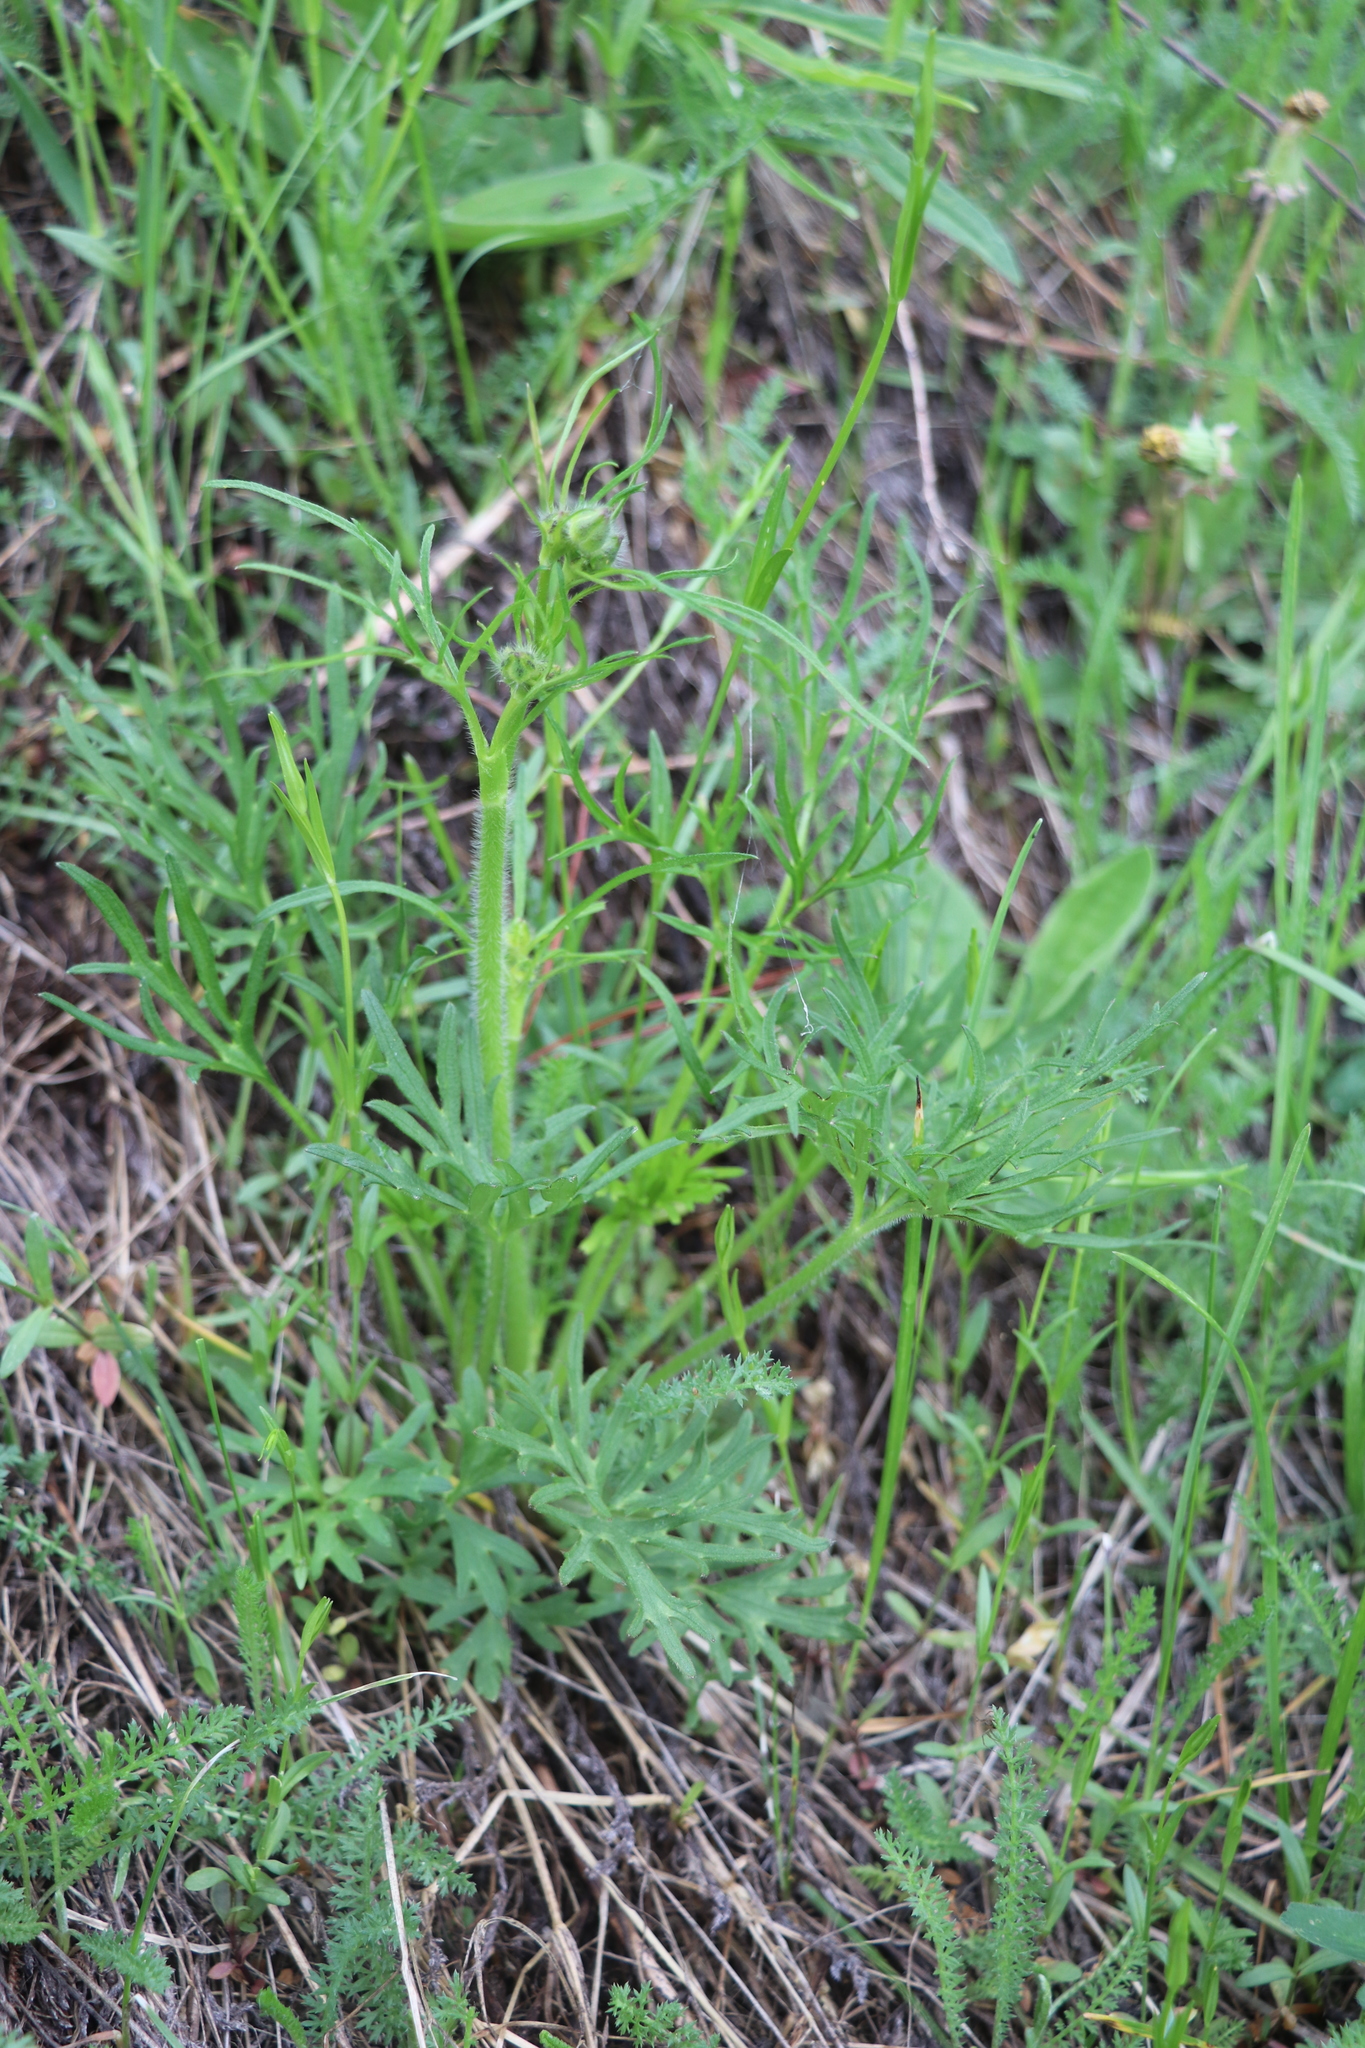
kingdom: Plantae
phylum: Tracheophyta
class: Magnoliopsida
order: Ranunculales
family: Ranunculaceae
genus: Ranunculus
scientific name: Ranunculus polyanthemos
